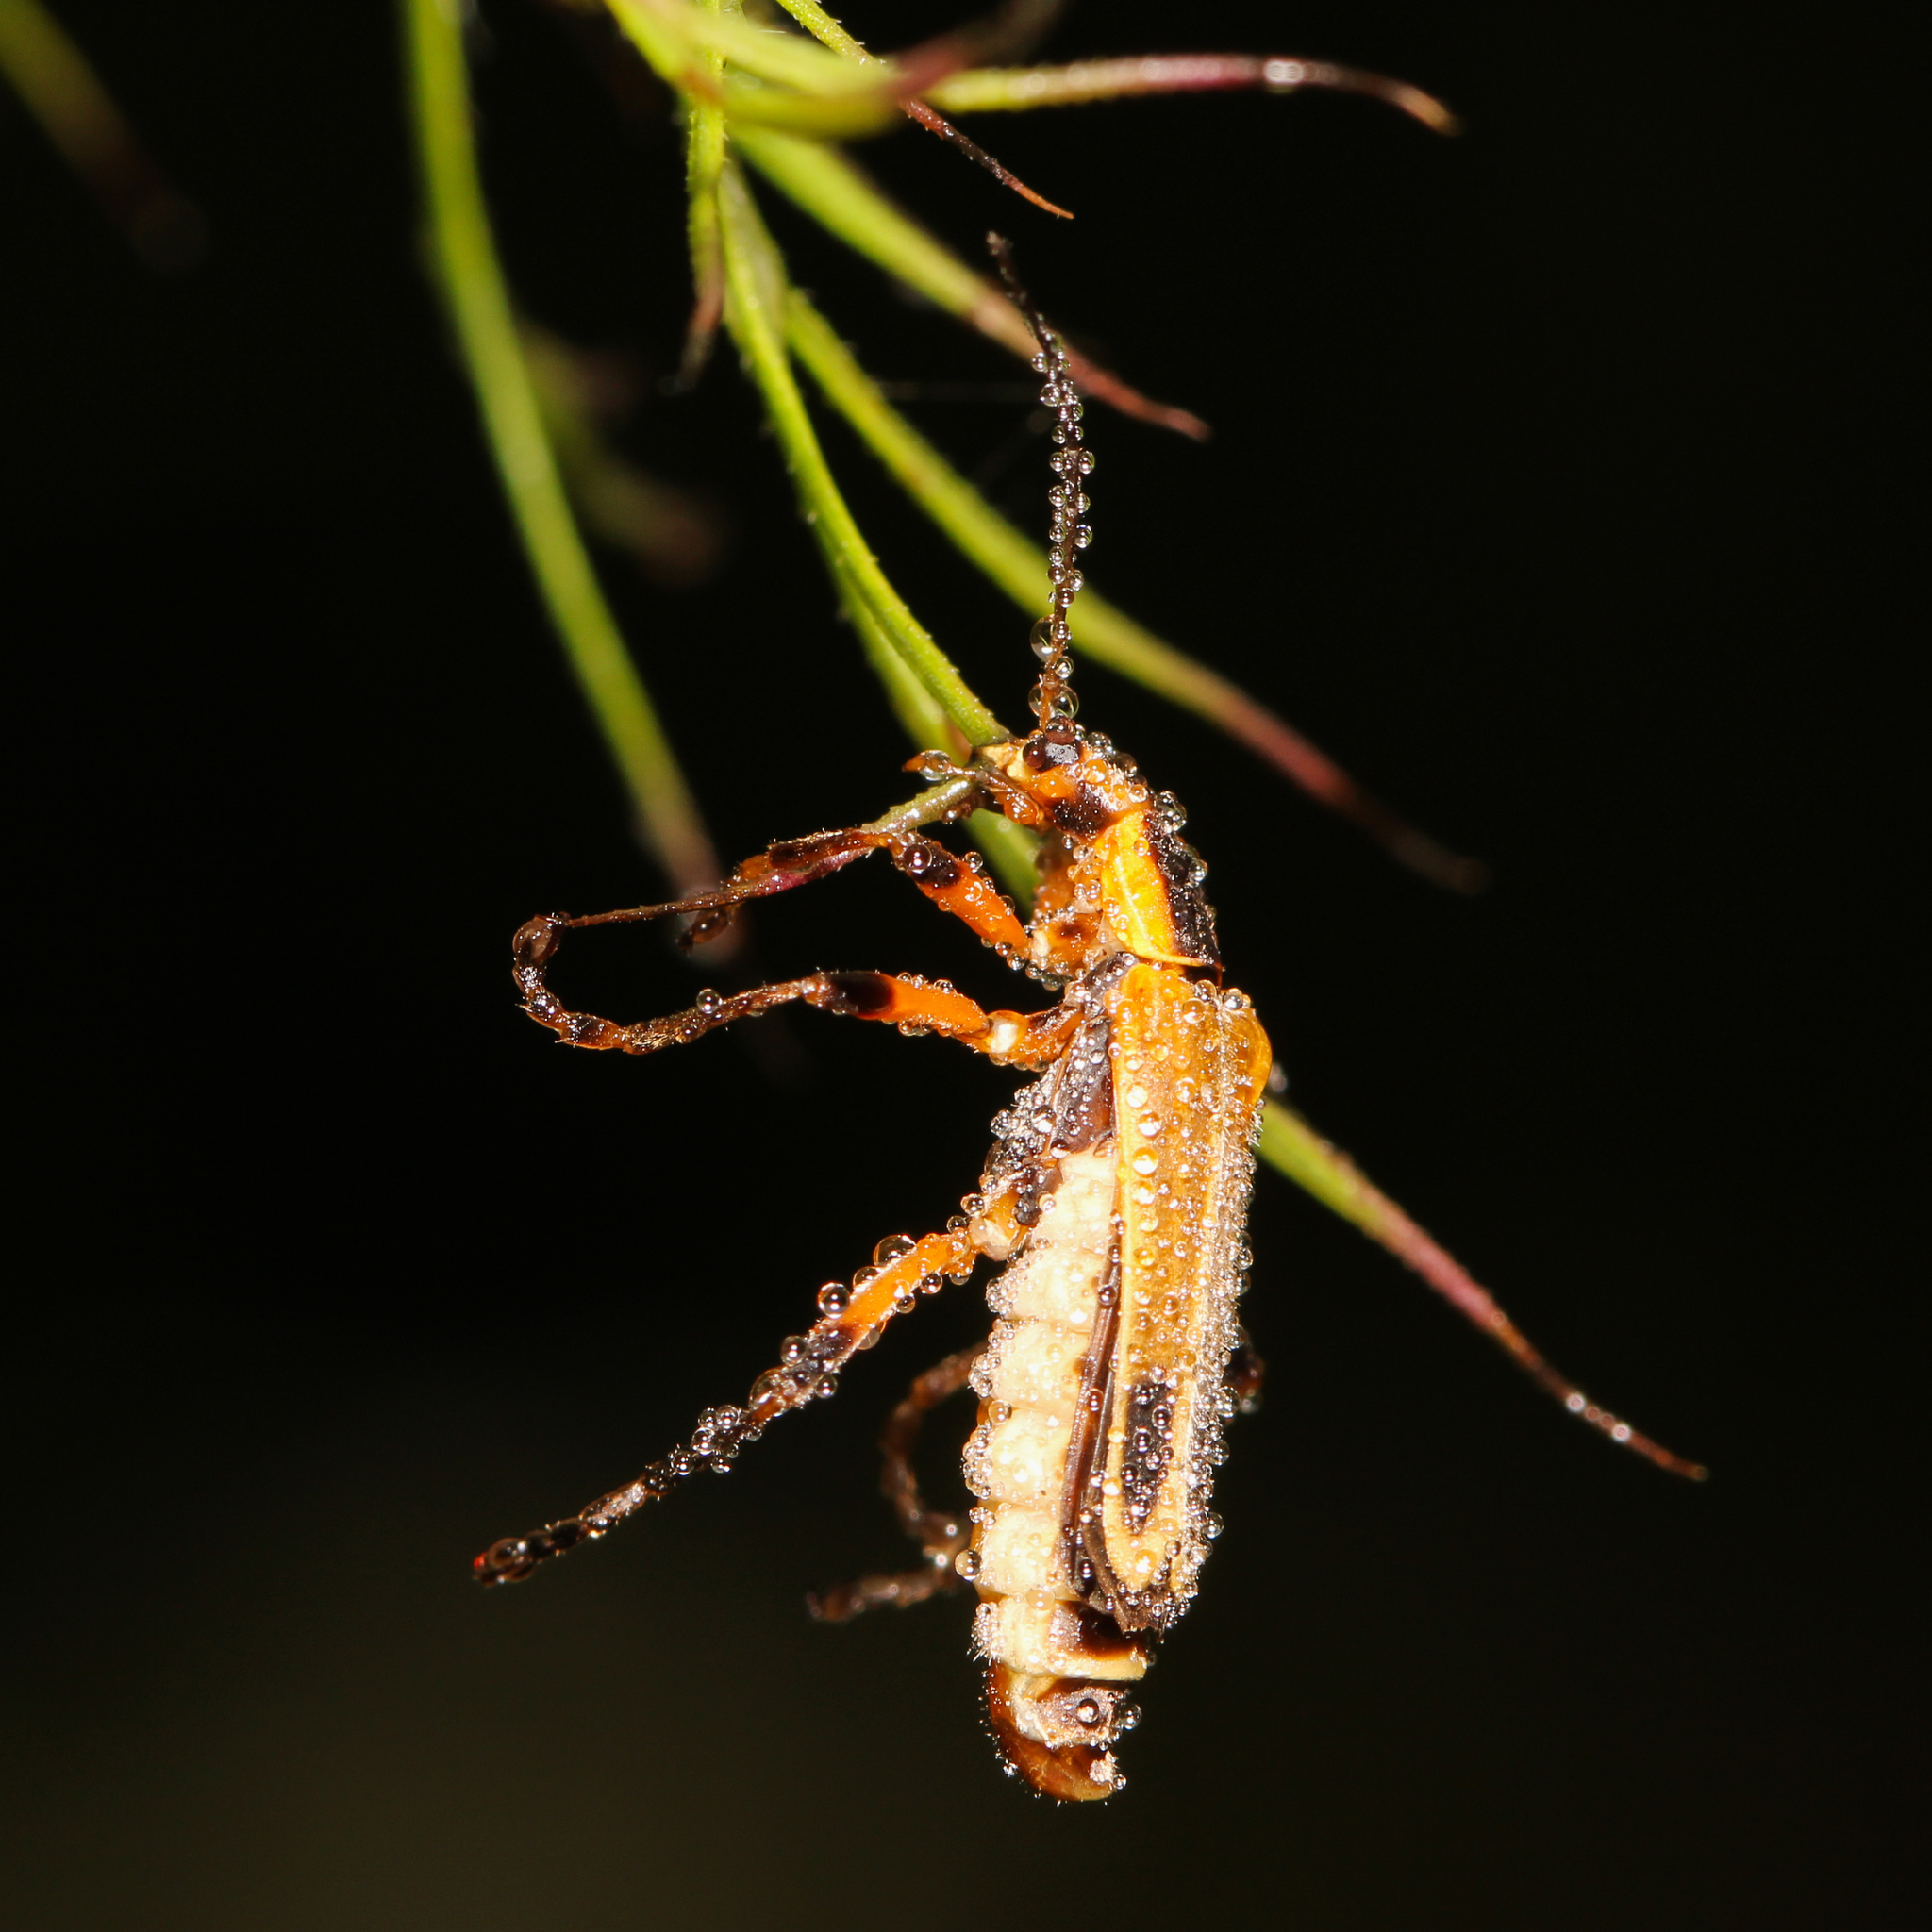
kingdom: Animalia
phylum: Arthropoda
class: Insecta
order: Coleoptera
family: Cantharidae
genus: Chauliognathus
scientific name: Chauliognathus marginatus
